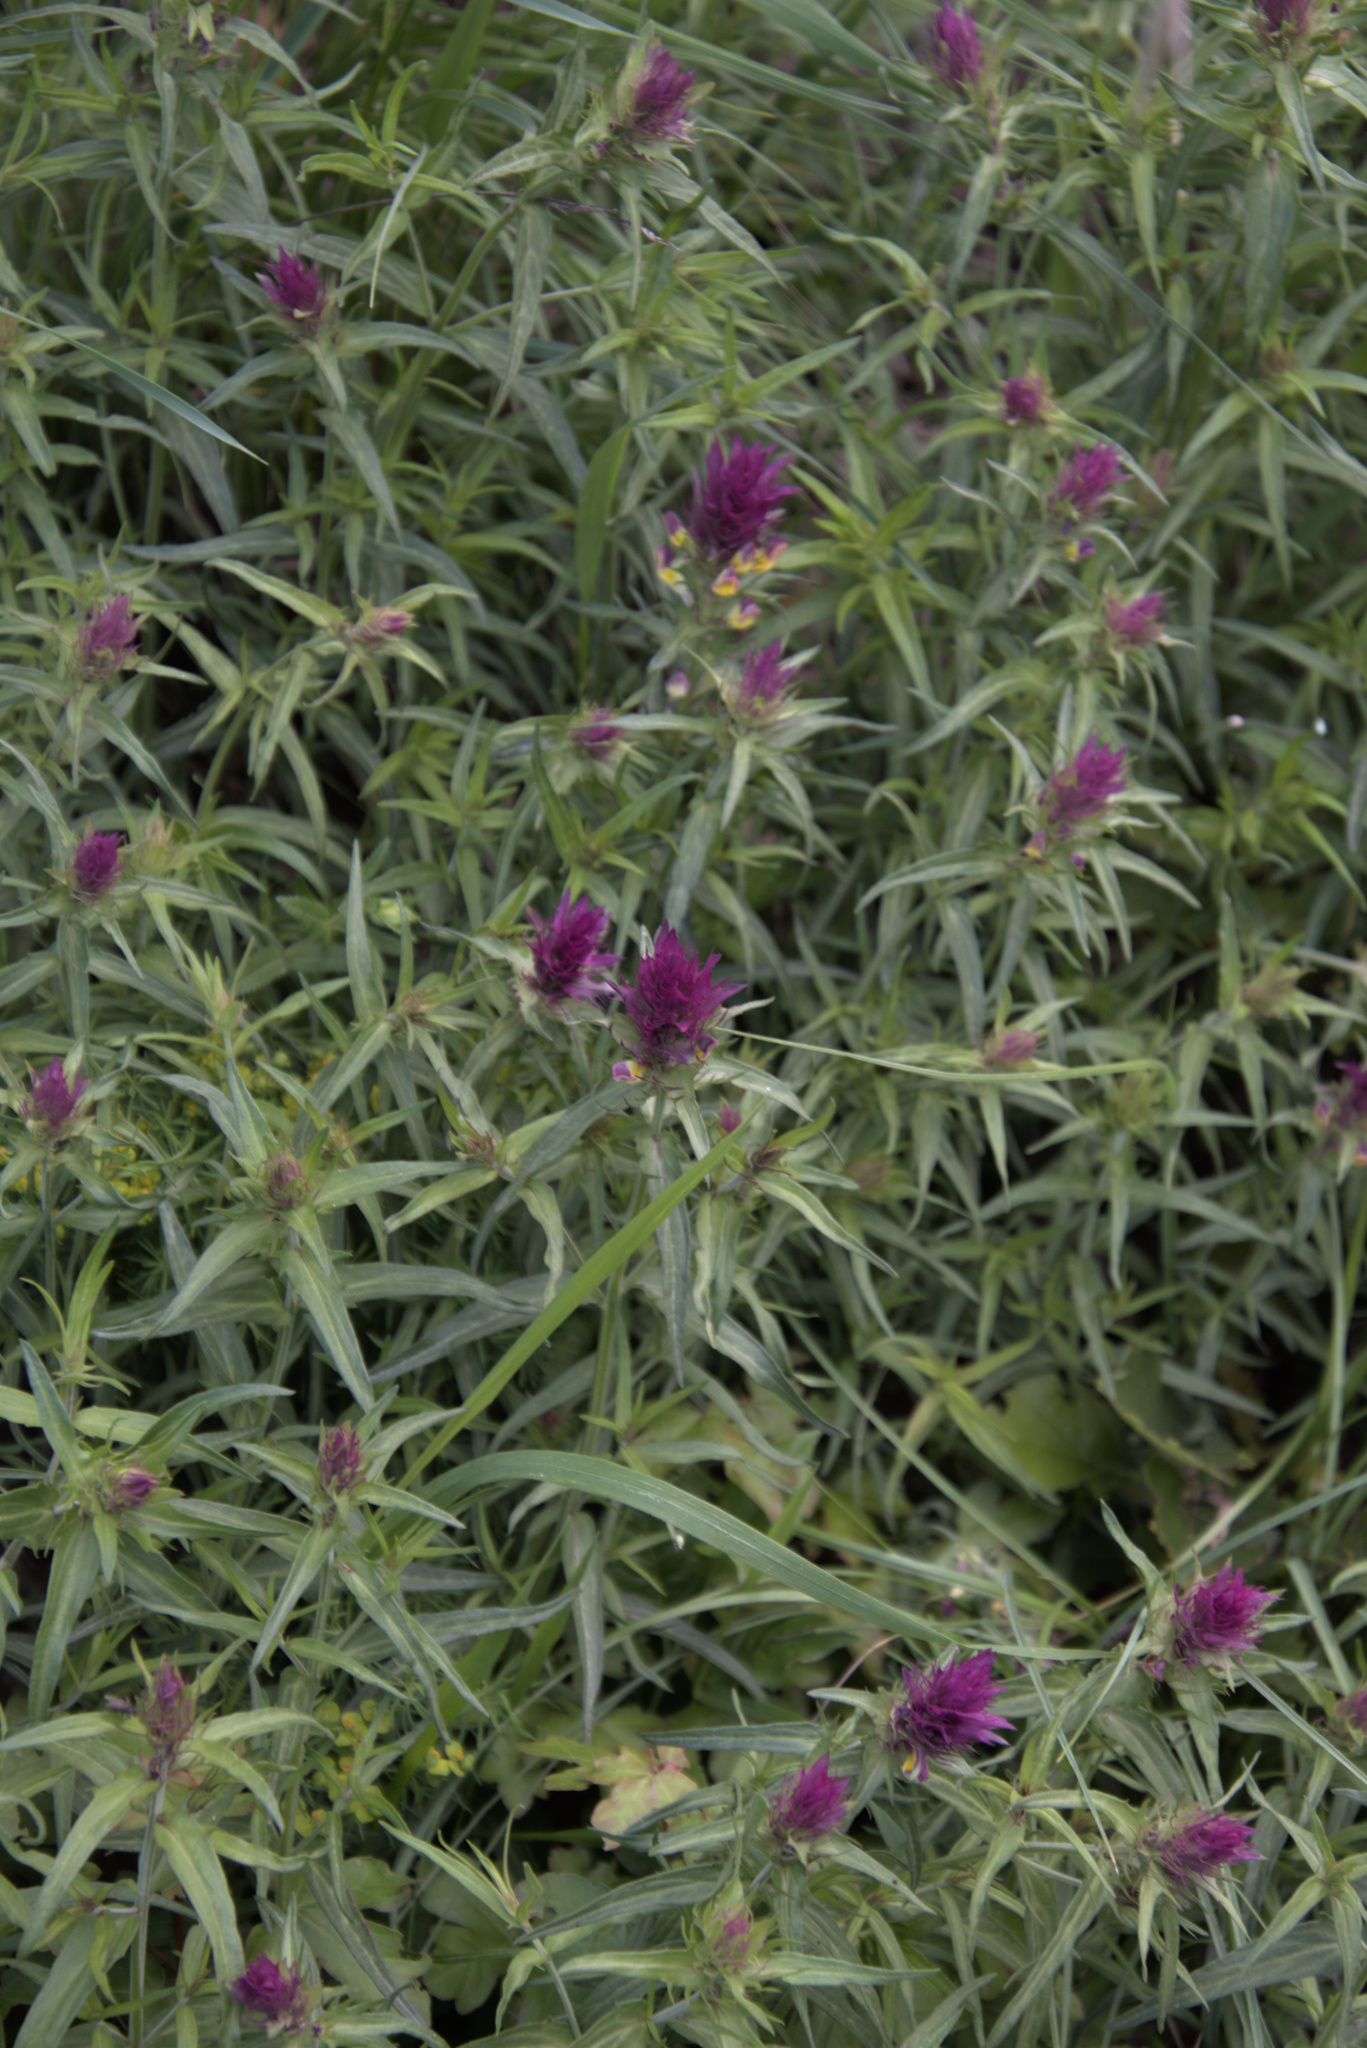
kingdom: Plantae
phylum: Tracheophyta
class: Magnoliopsida
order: Lamiales
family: Orobanchaceae
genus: Melampyrum
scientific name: Melampyrum arvense
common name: Field cow-wheat
